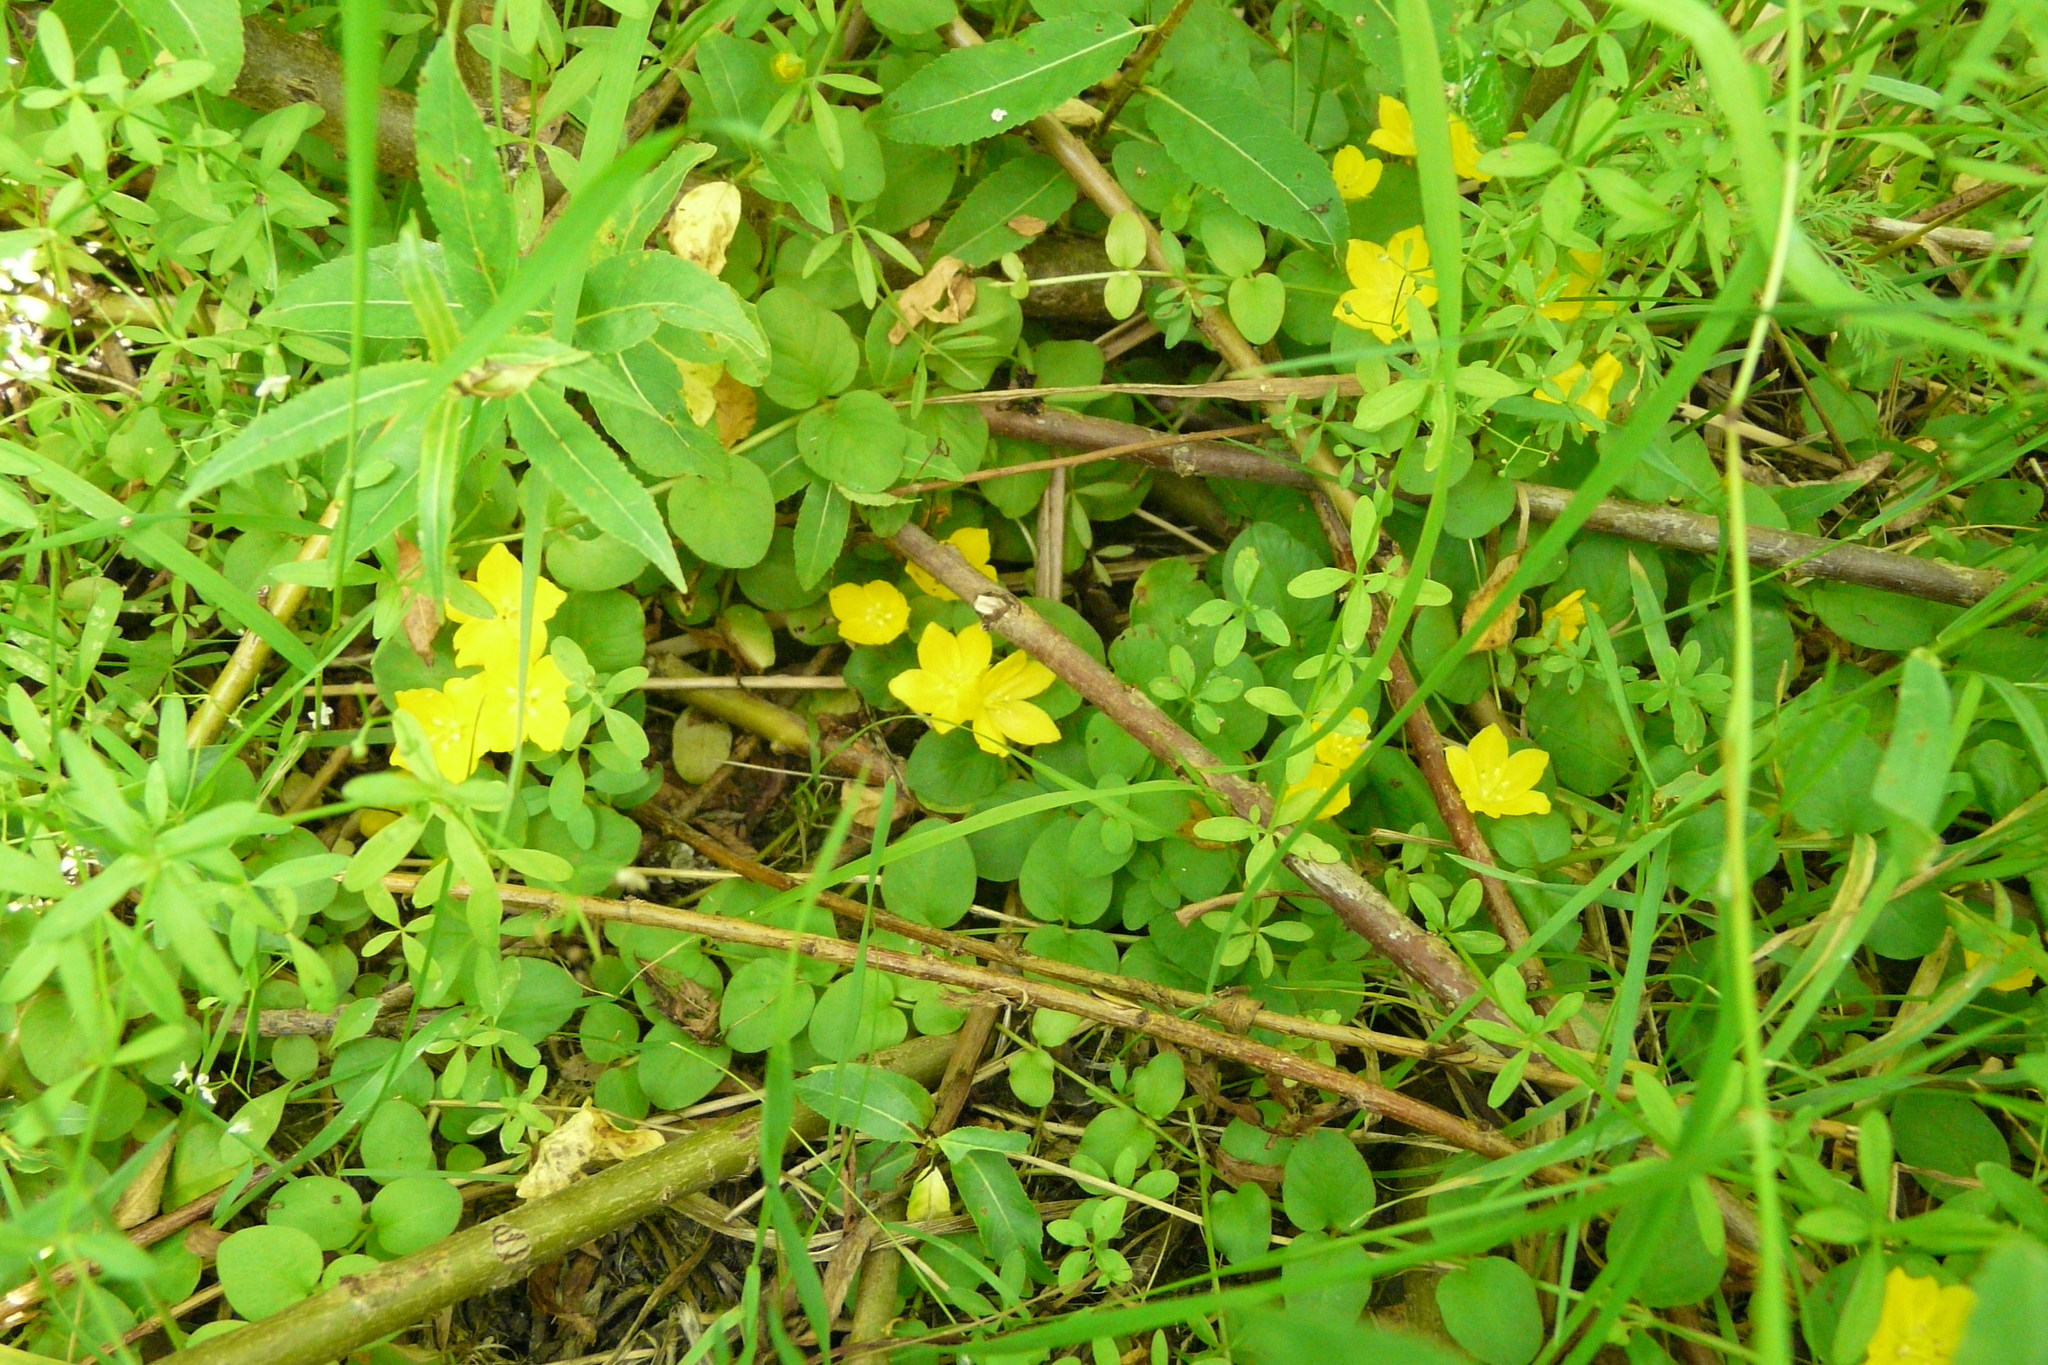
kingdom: Plantae
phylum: Tracheophyta
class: Magnoliopsida
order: Ericales
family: Primulaceae
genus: Lysimachia
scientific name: Lysimachia nummularia
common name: Moneywort
